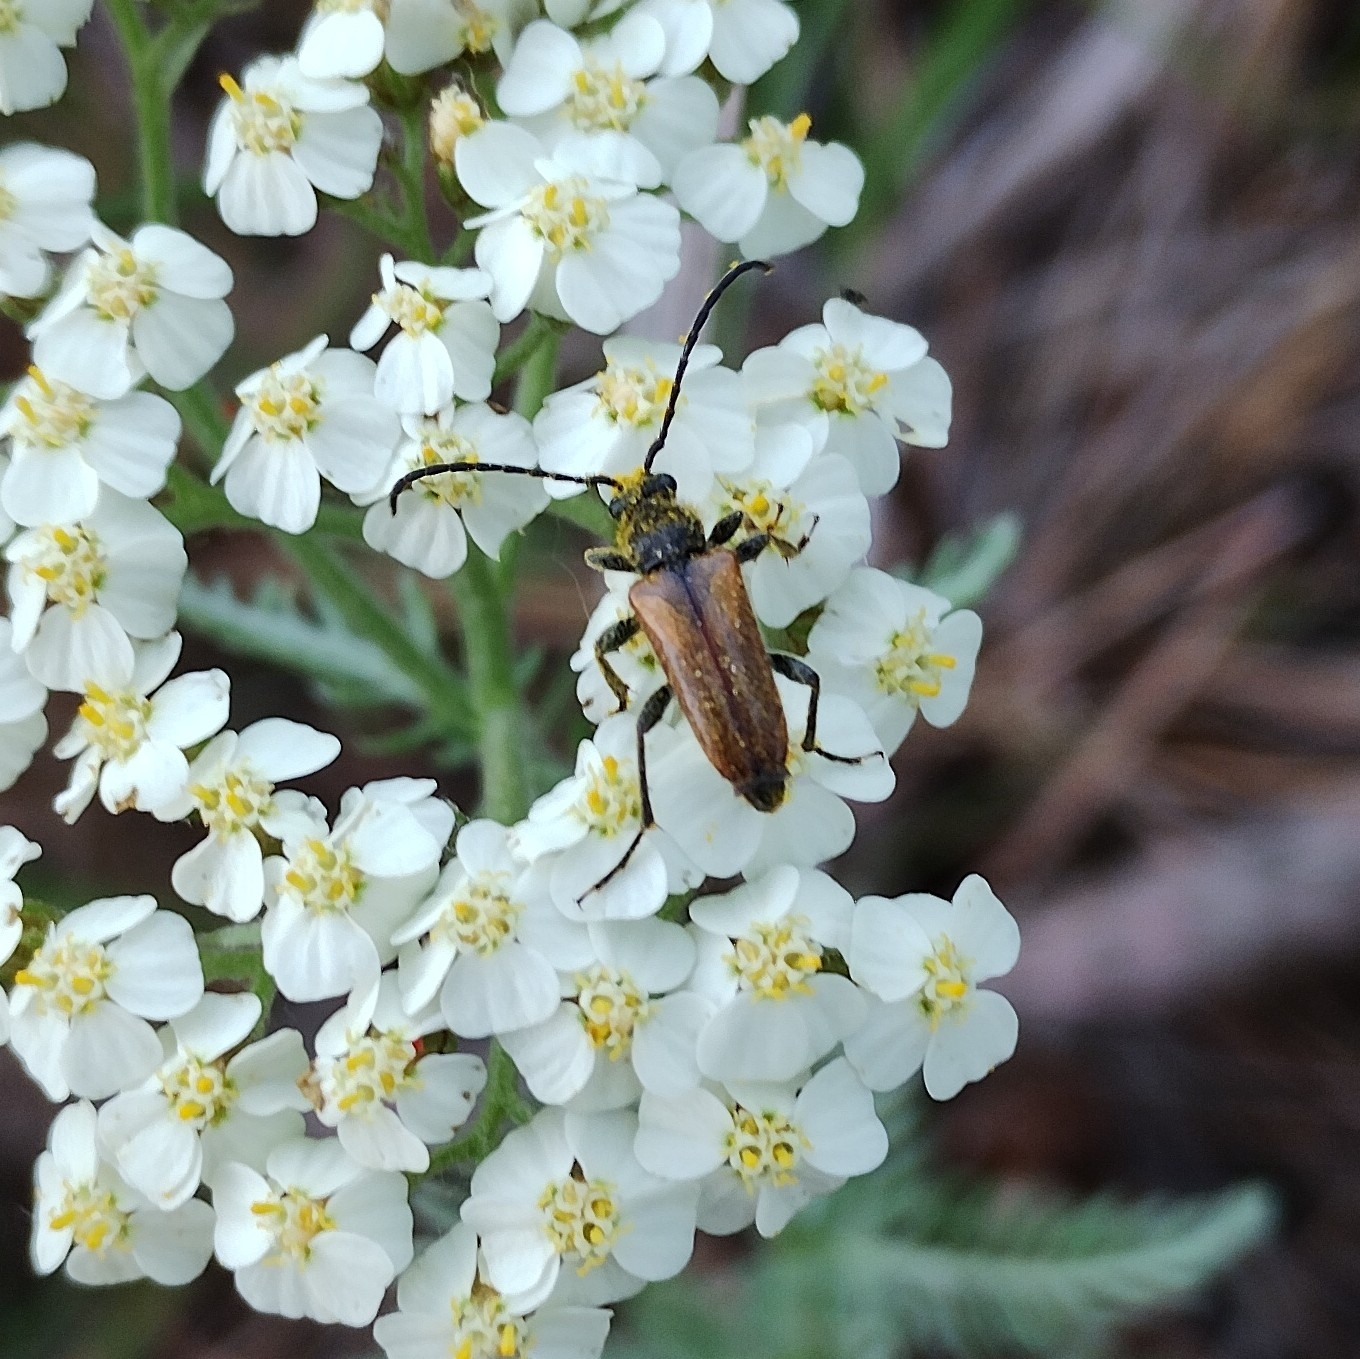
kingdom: Animalia
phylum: Arthropoda
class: Insecta
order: Coleoptera
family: Cerambycidae
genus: Pseudovadonia
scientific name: Pseudovadonia livida
